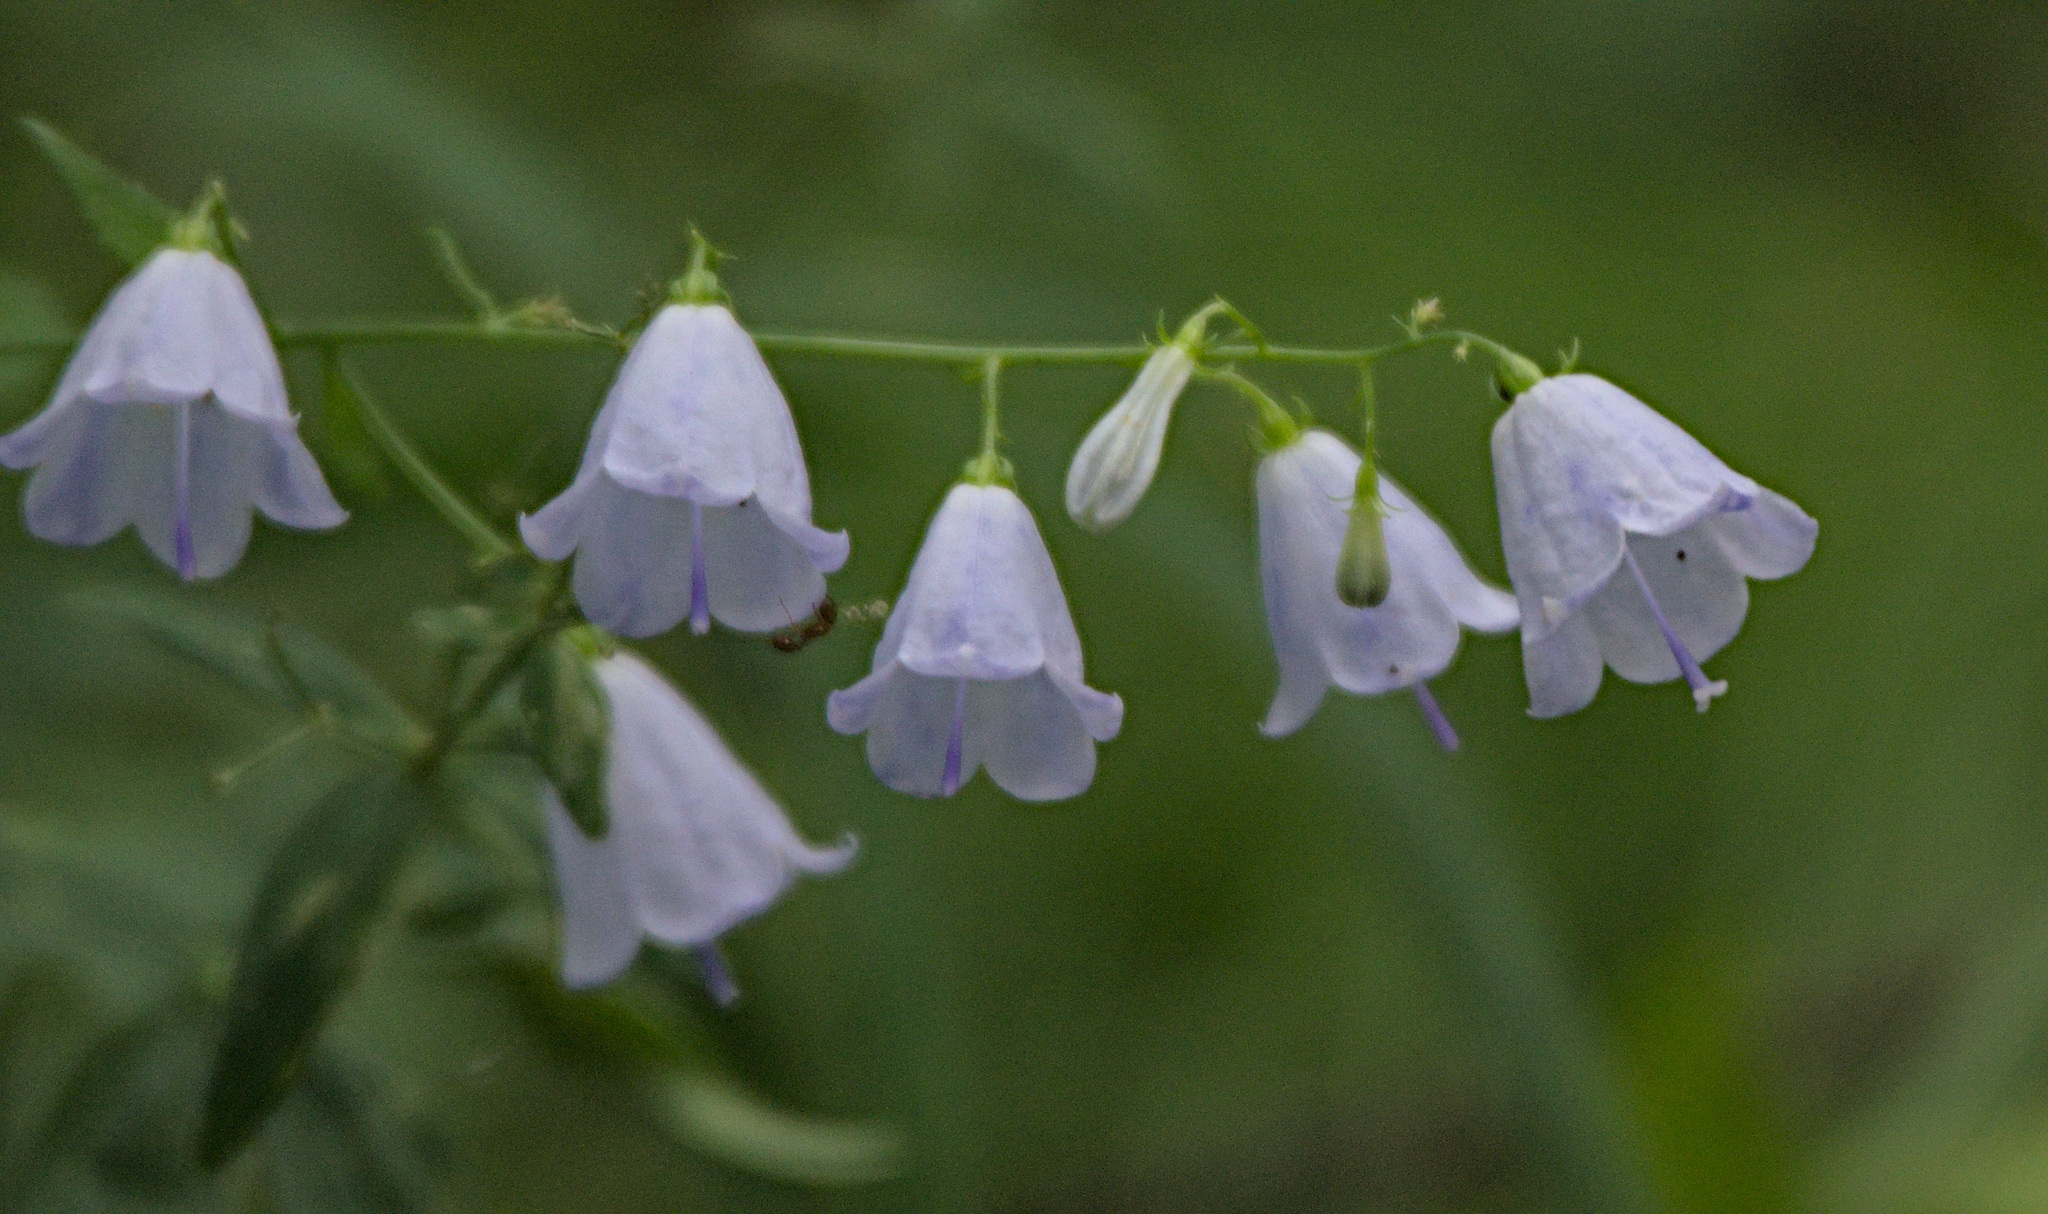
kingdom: Plantae
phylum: Tracheophyta
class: Magnoliopsida
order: Asterales
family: Campanulaceae
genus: Adenophora
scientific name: Adenophora liliifolia
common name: Lilyleaf ladybells
